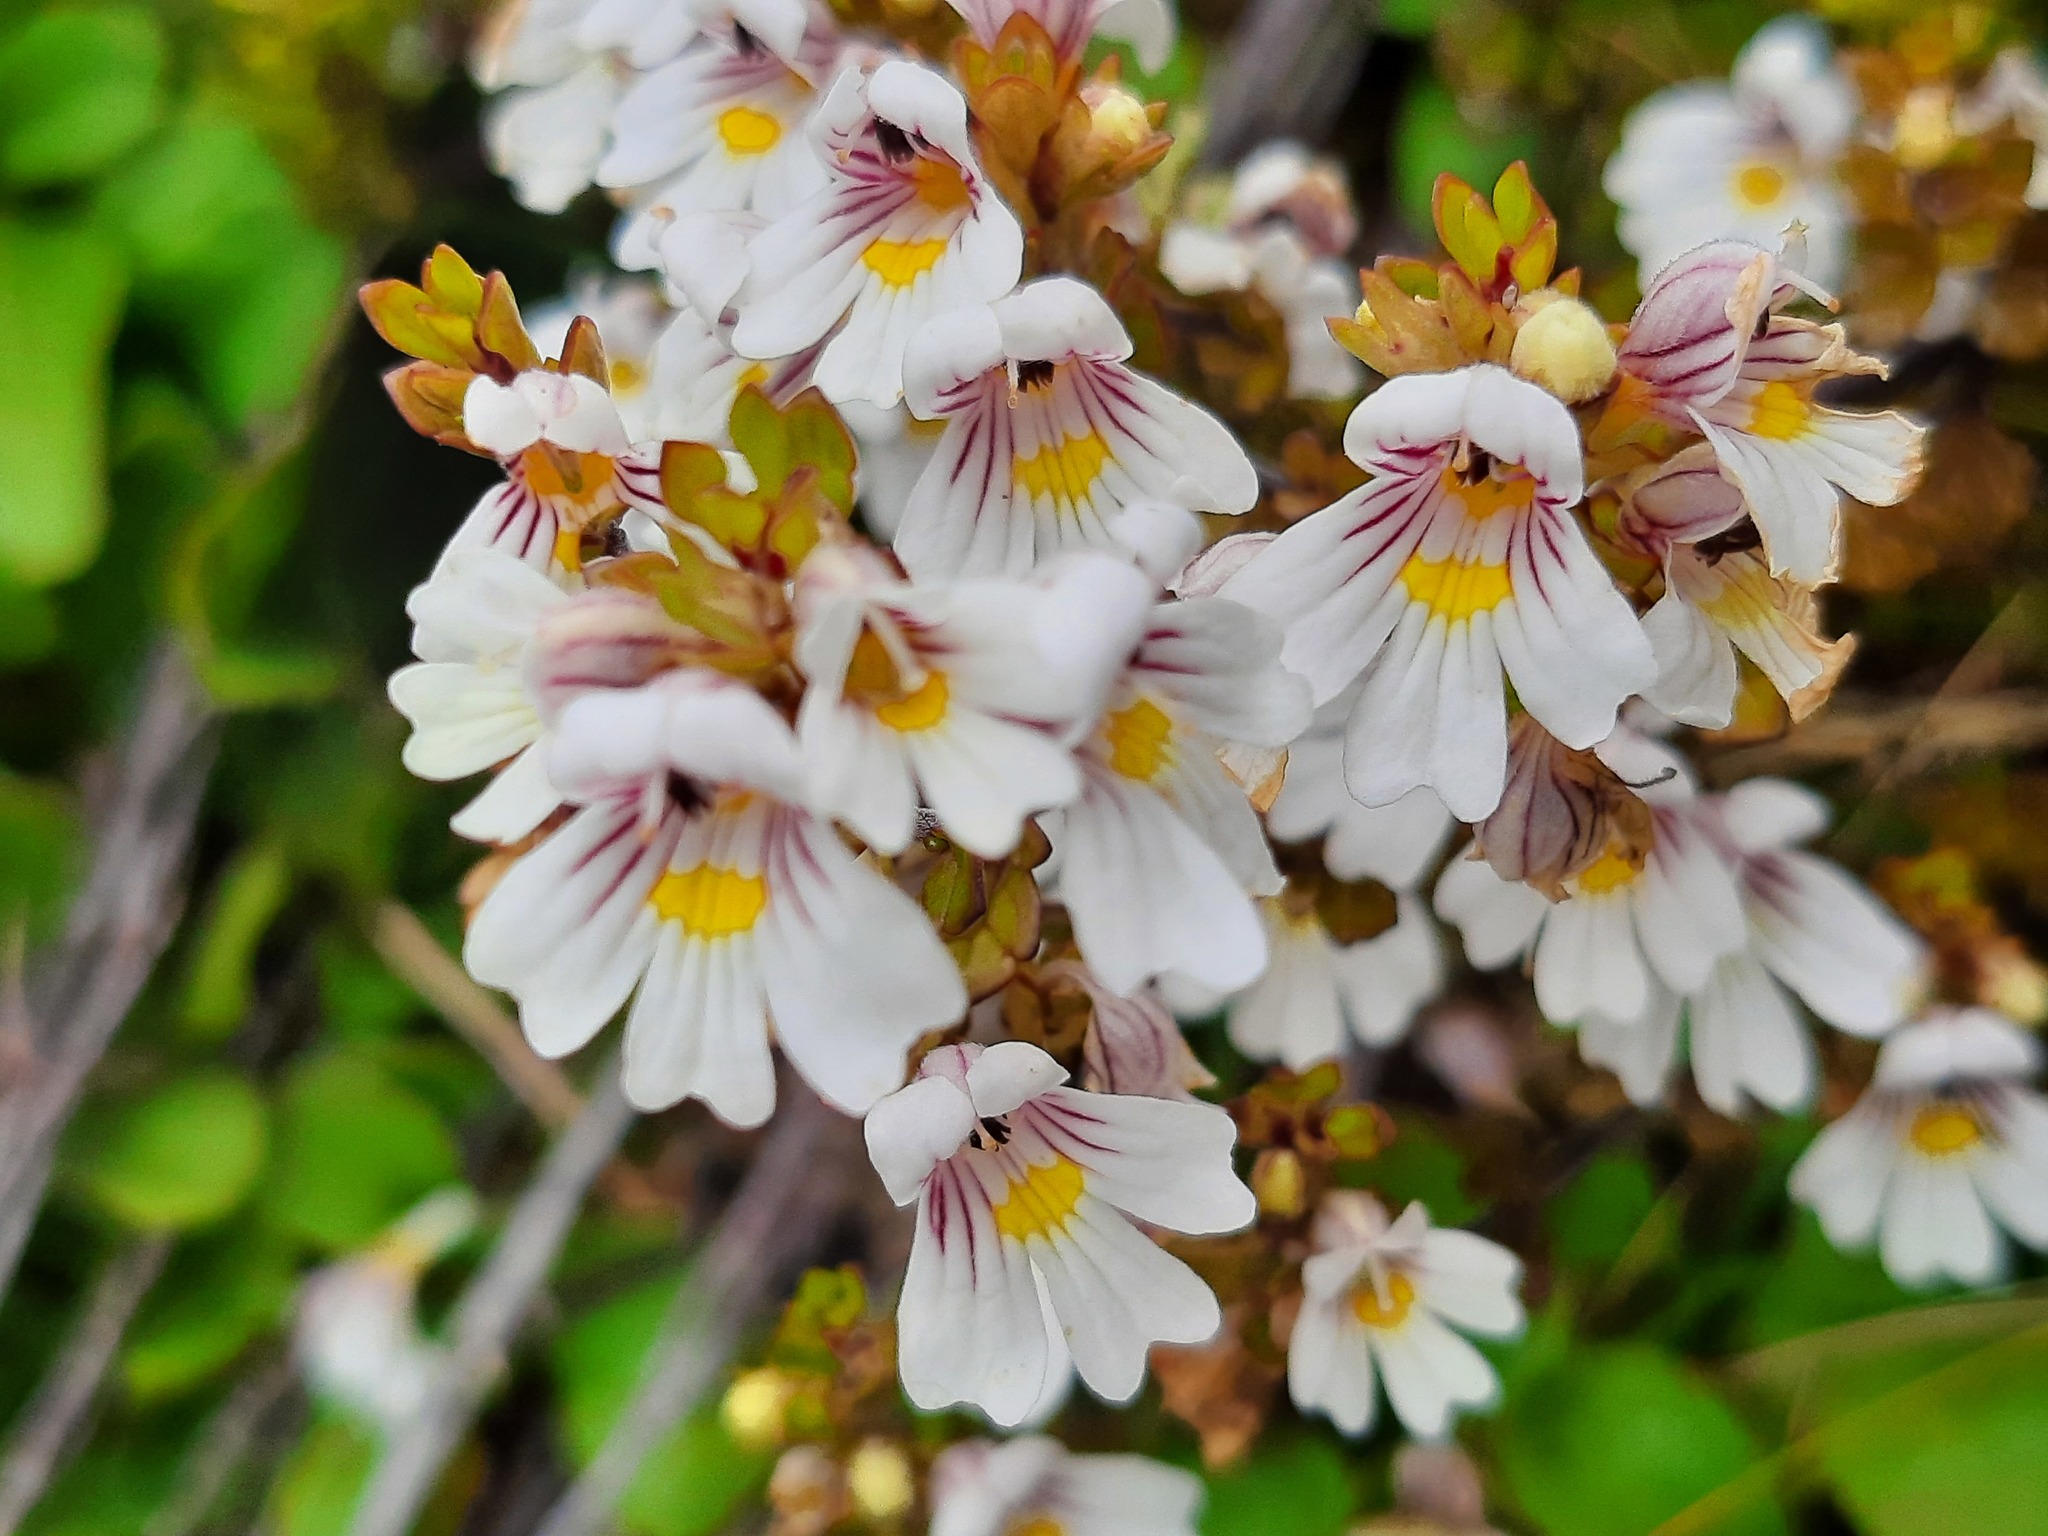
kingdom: Plantae
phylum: Tracheophyta
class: Magnoliopsida
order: Lamiales
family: Orobanchaceae
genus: Euphrasia
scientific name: Euphrasia cuneata
